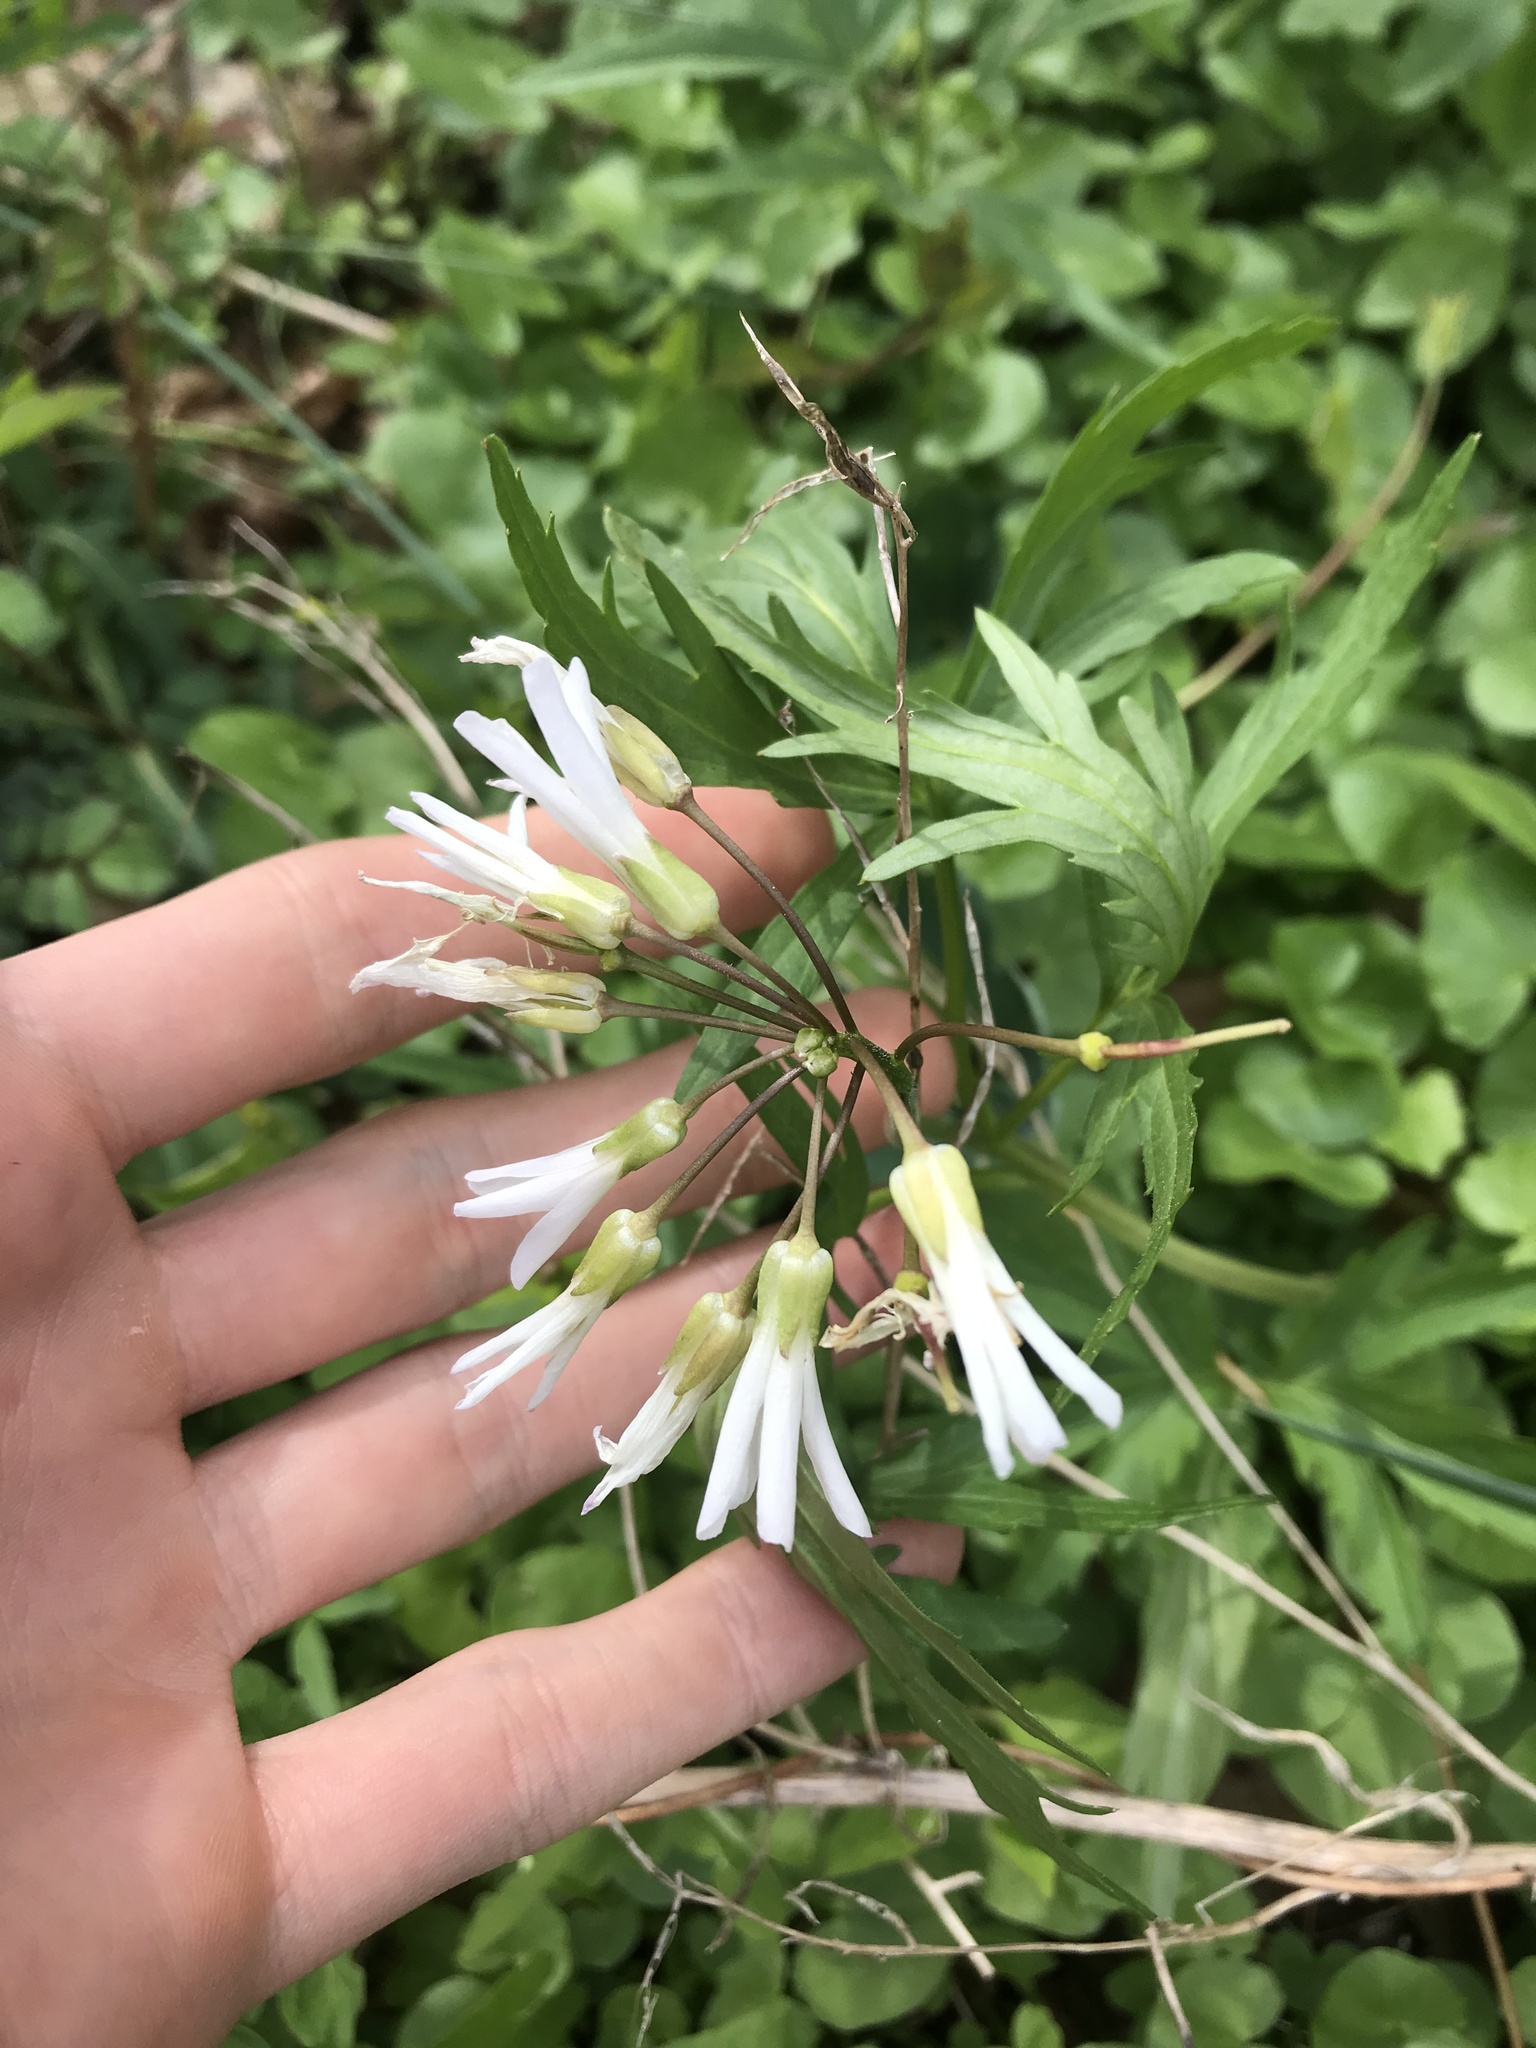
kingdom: Plantae
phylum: Tracheophyta
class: Magnoliopsida
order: Brassicales
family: Brassicaceae
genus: Cardamine
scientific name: Cardamine concatenata
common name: Cut-leaf toothcup
